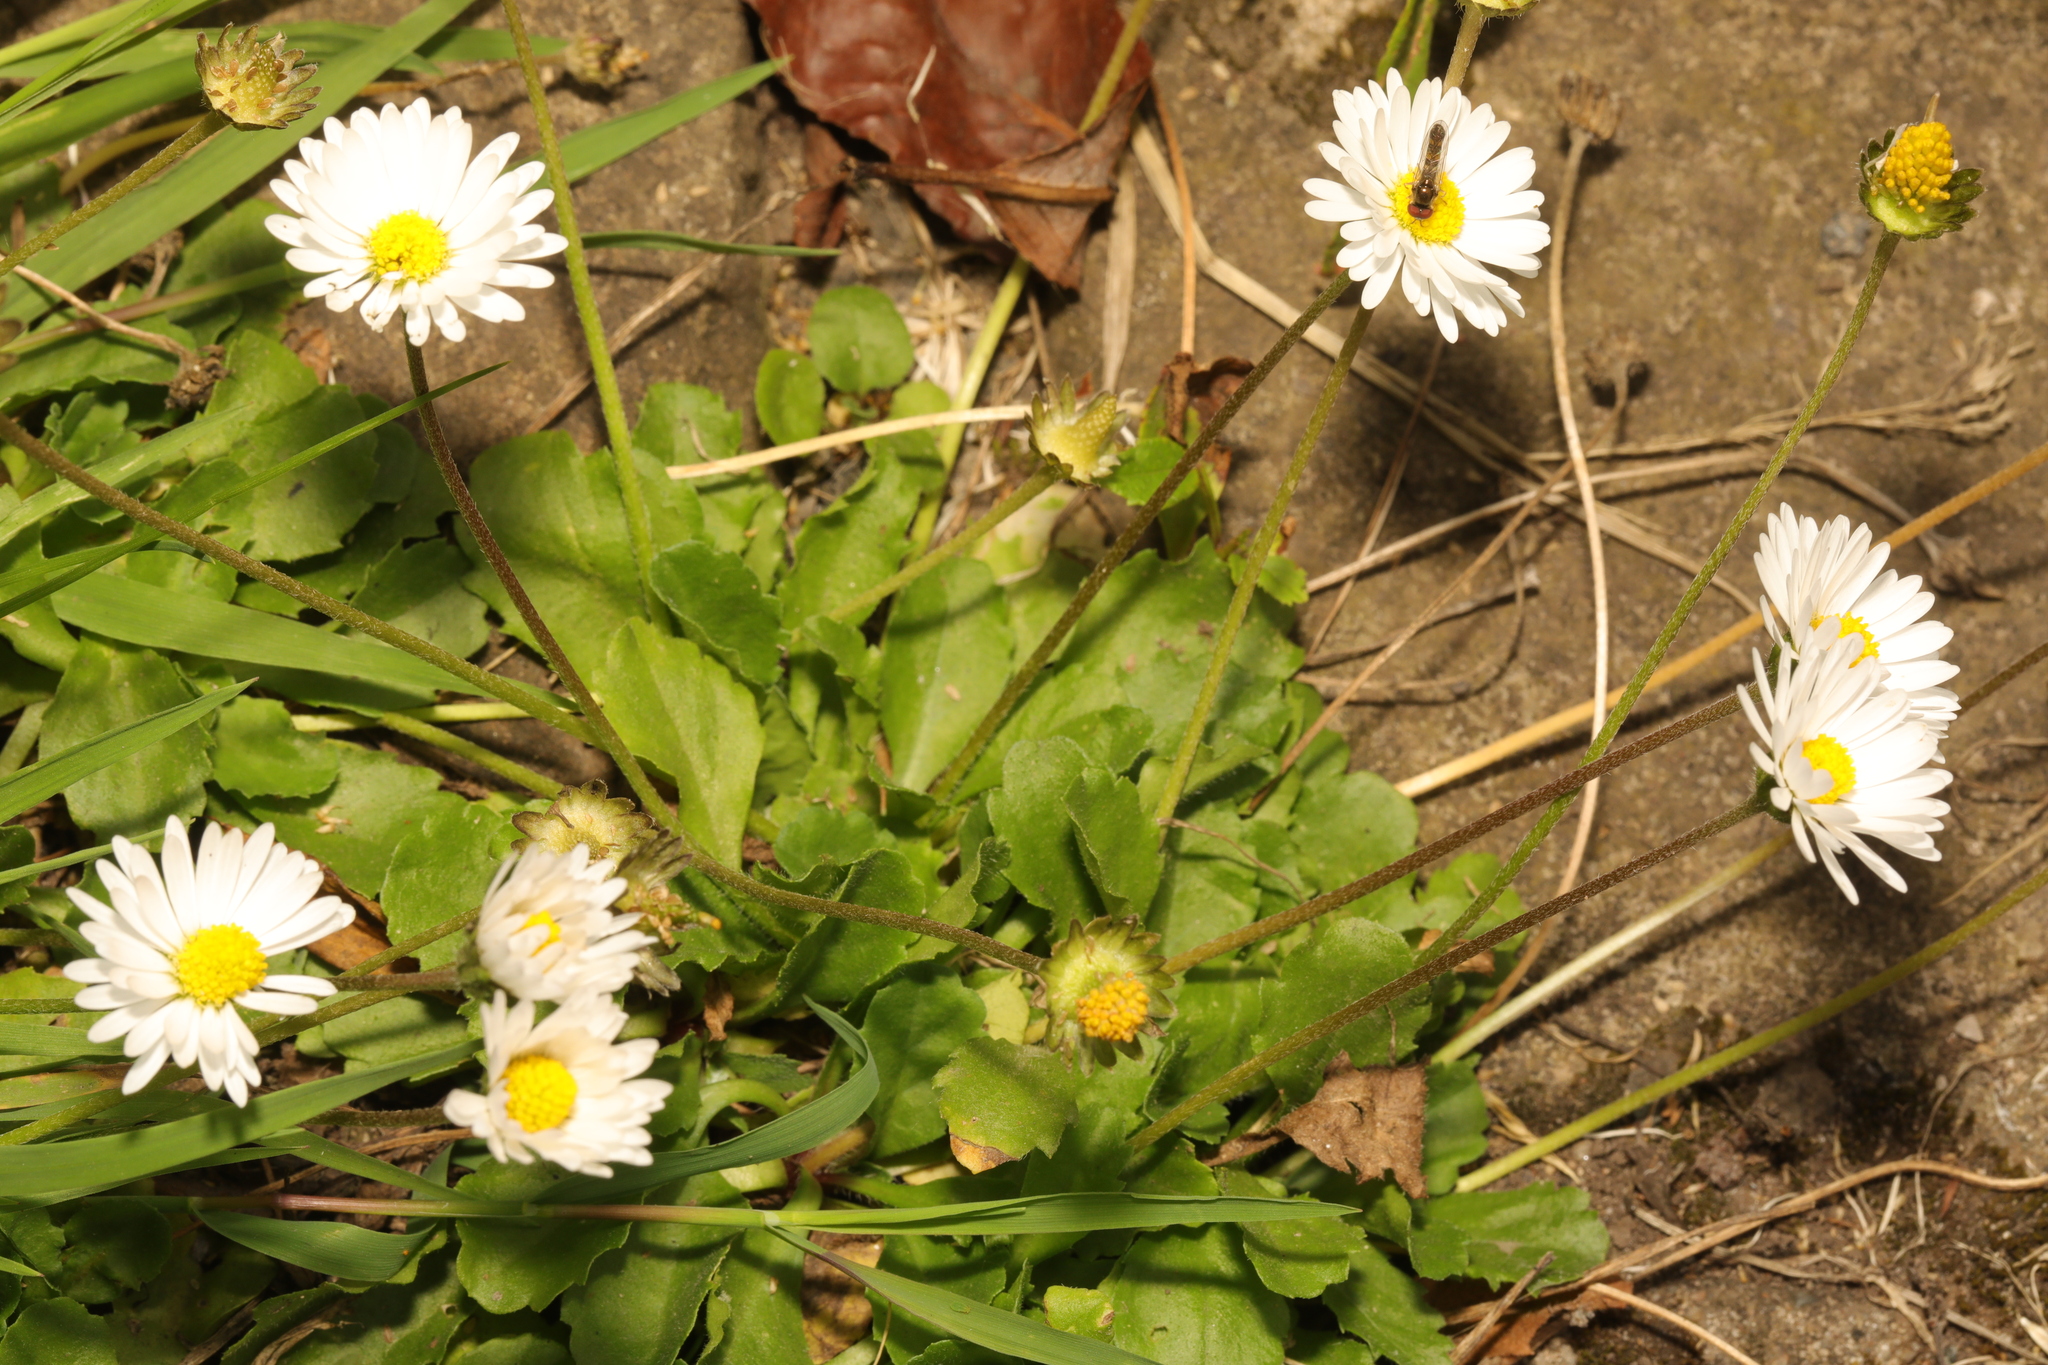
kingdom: Plantae
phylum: Tracheophyta
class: Magnoliopsida
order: Asterales
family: Asteraceae
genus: Bellis
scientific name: Bellis perennis
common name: Lawndaisy
